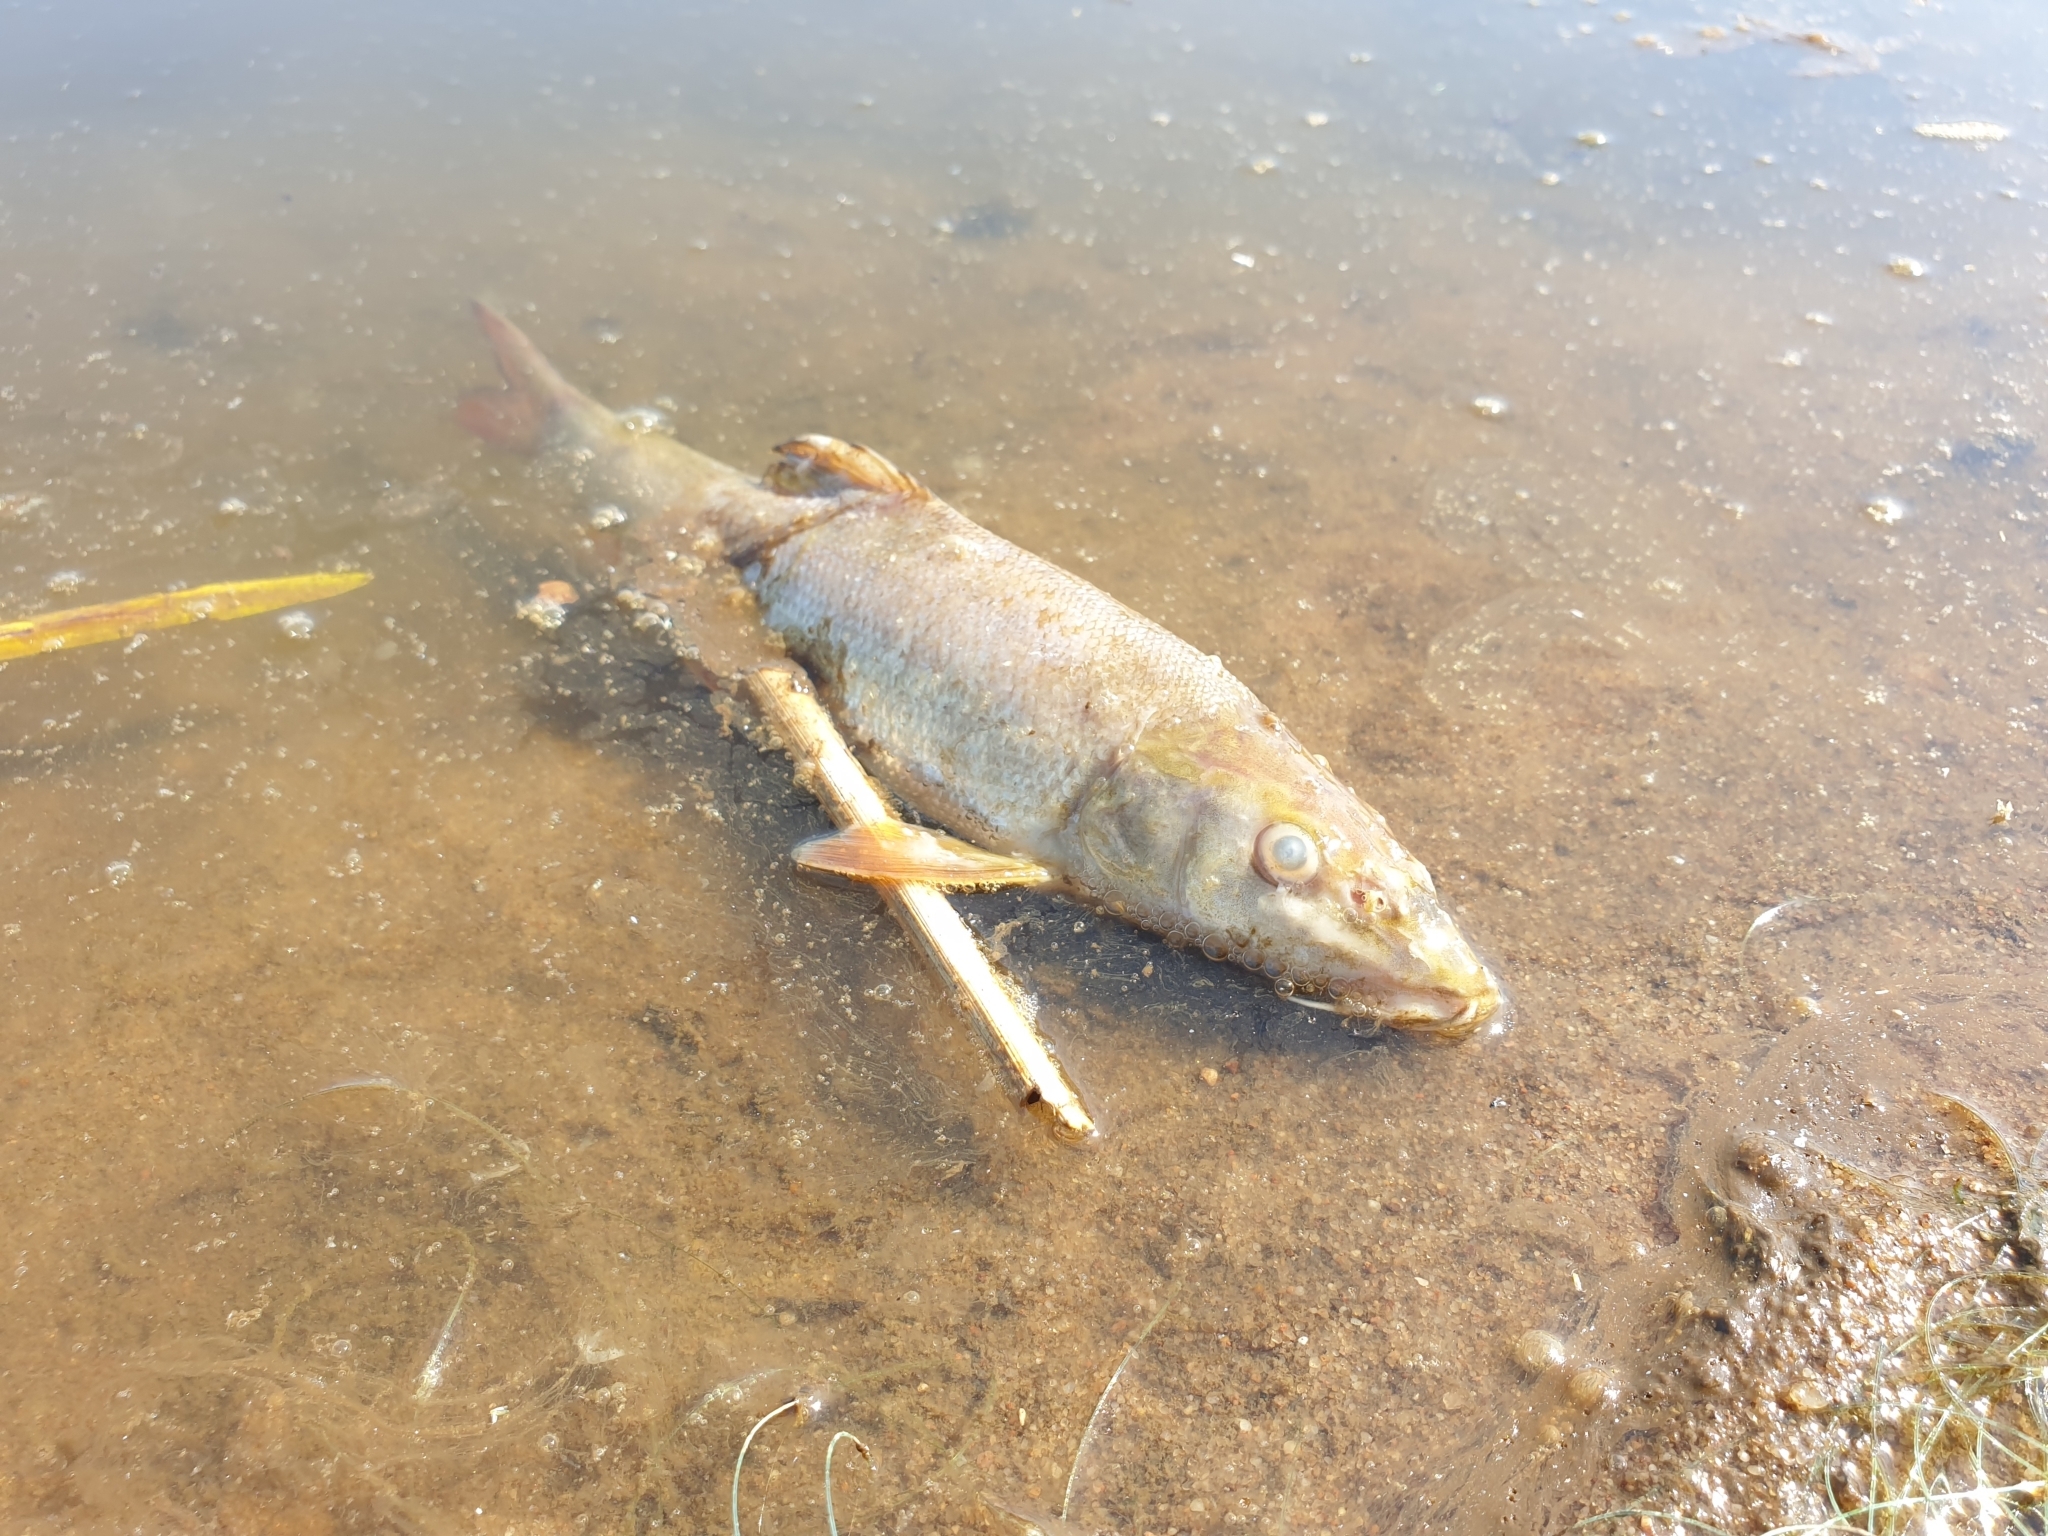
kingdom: Animalia
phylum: Chordata
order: Cypriniformes
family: Cyprinidae
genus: Barbus
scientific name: Barbus barbus
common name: Barbel
